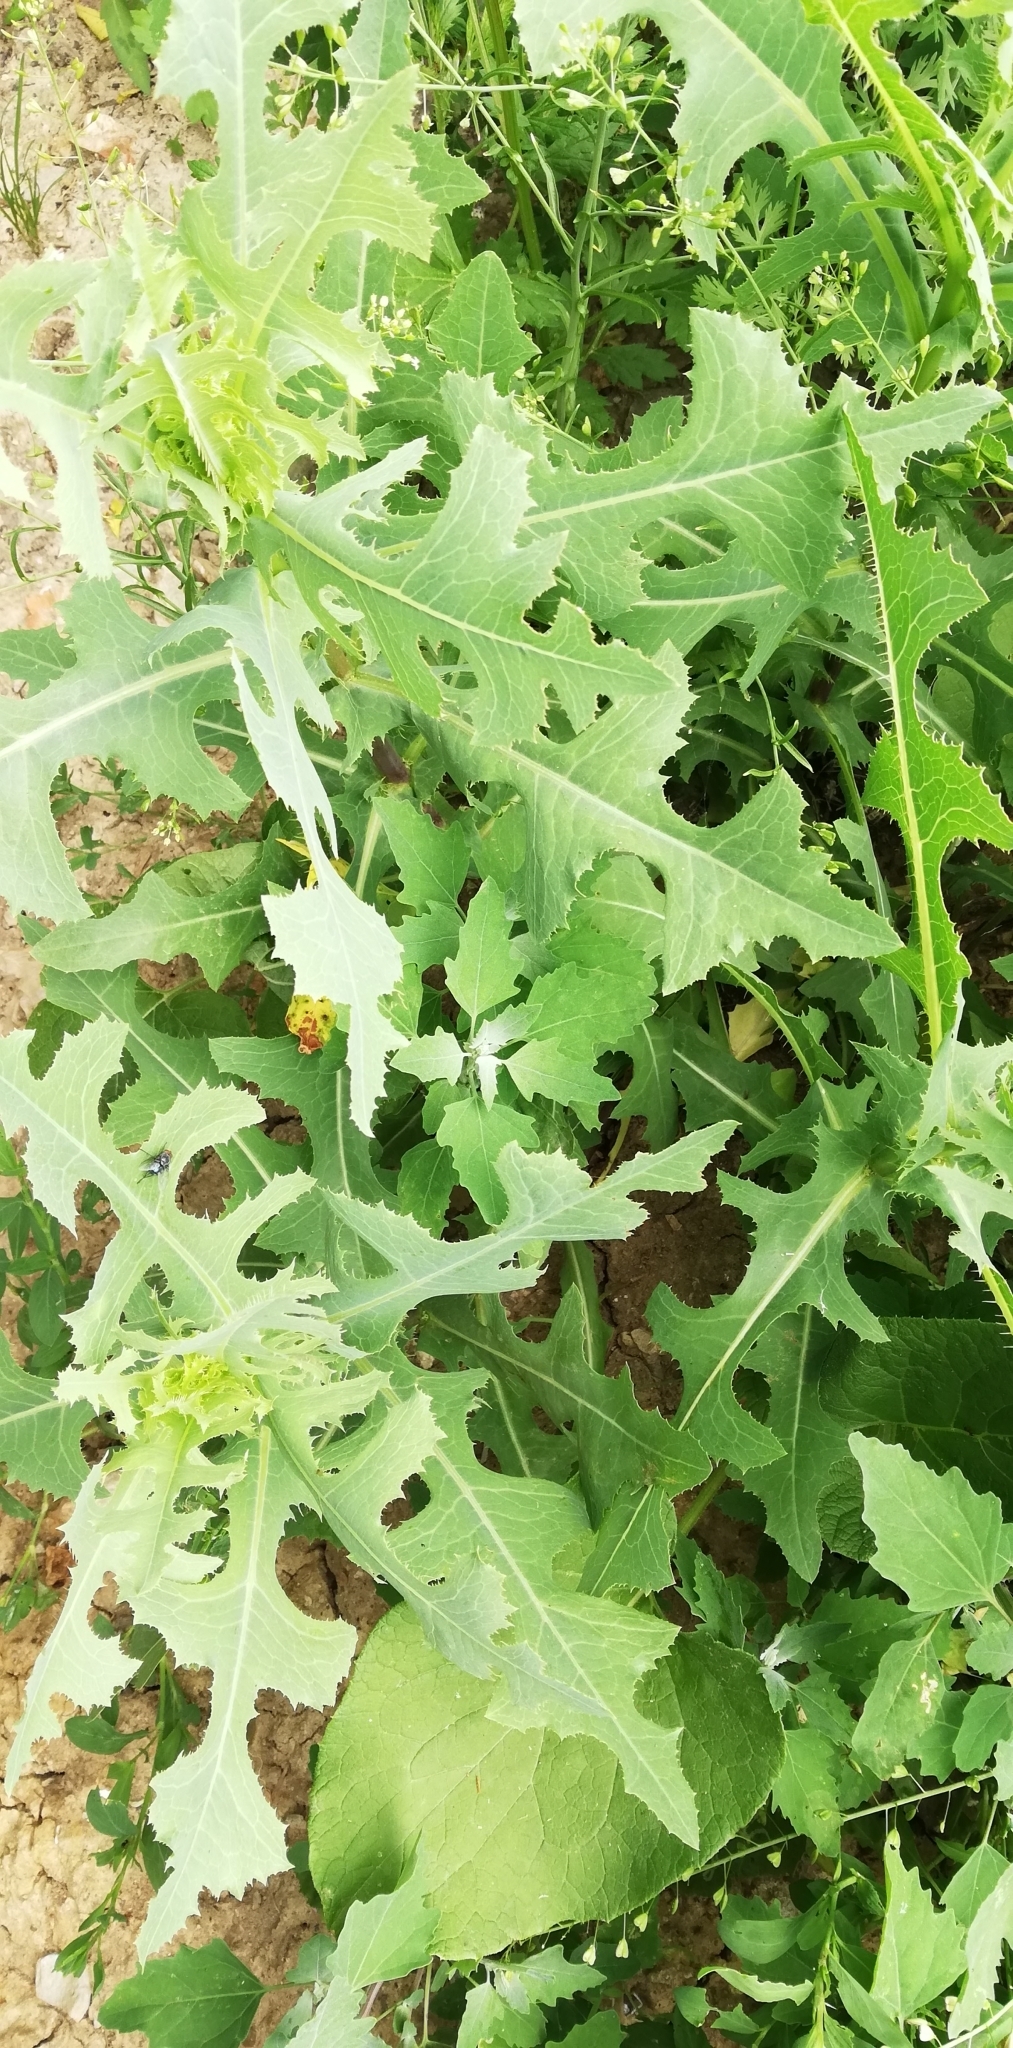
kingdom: Plantae
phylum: Tracheophyta
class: Magnoliopsida
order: Asterales
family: Asteraceae
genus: Lactuca
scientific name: Lactuca serriola
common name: Prickly lettuce
